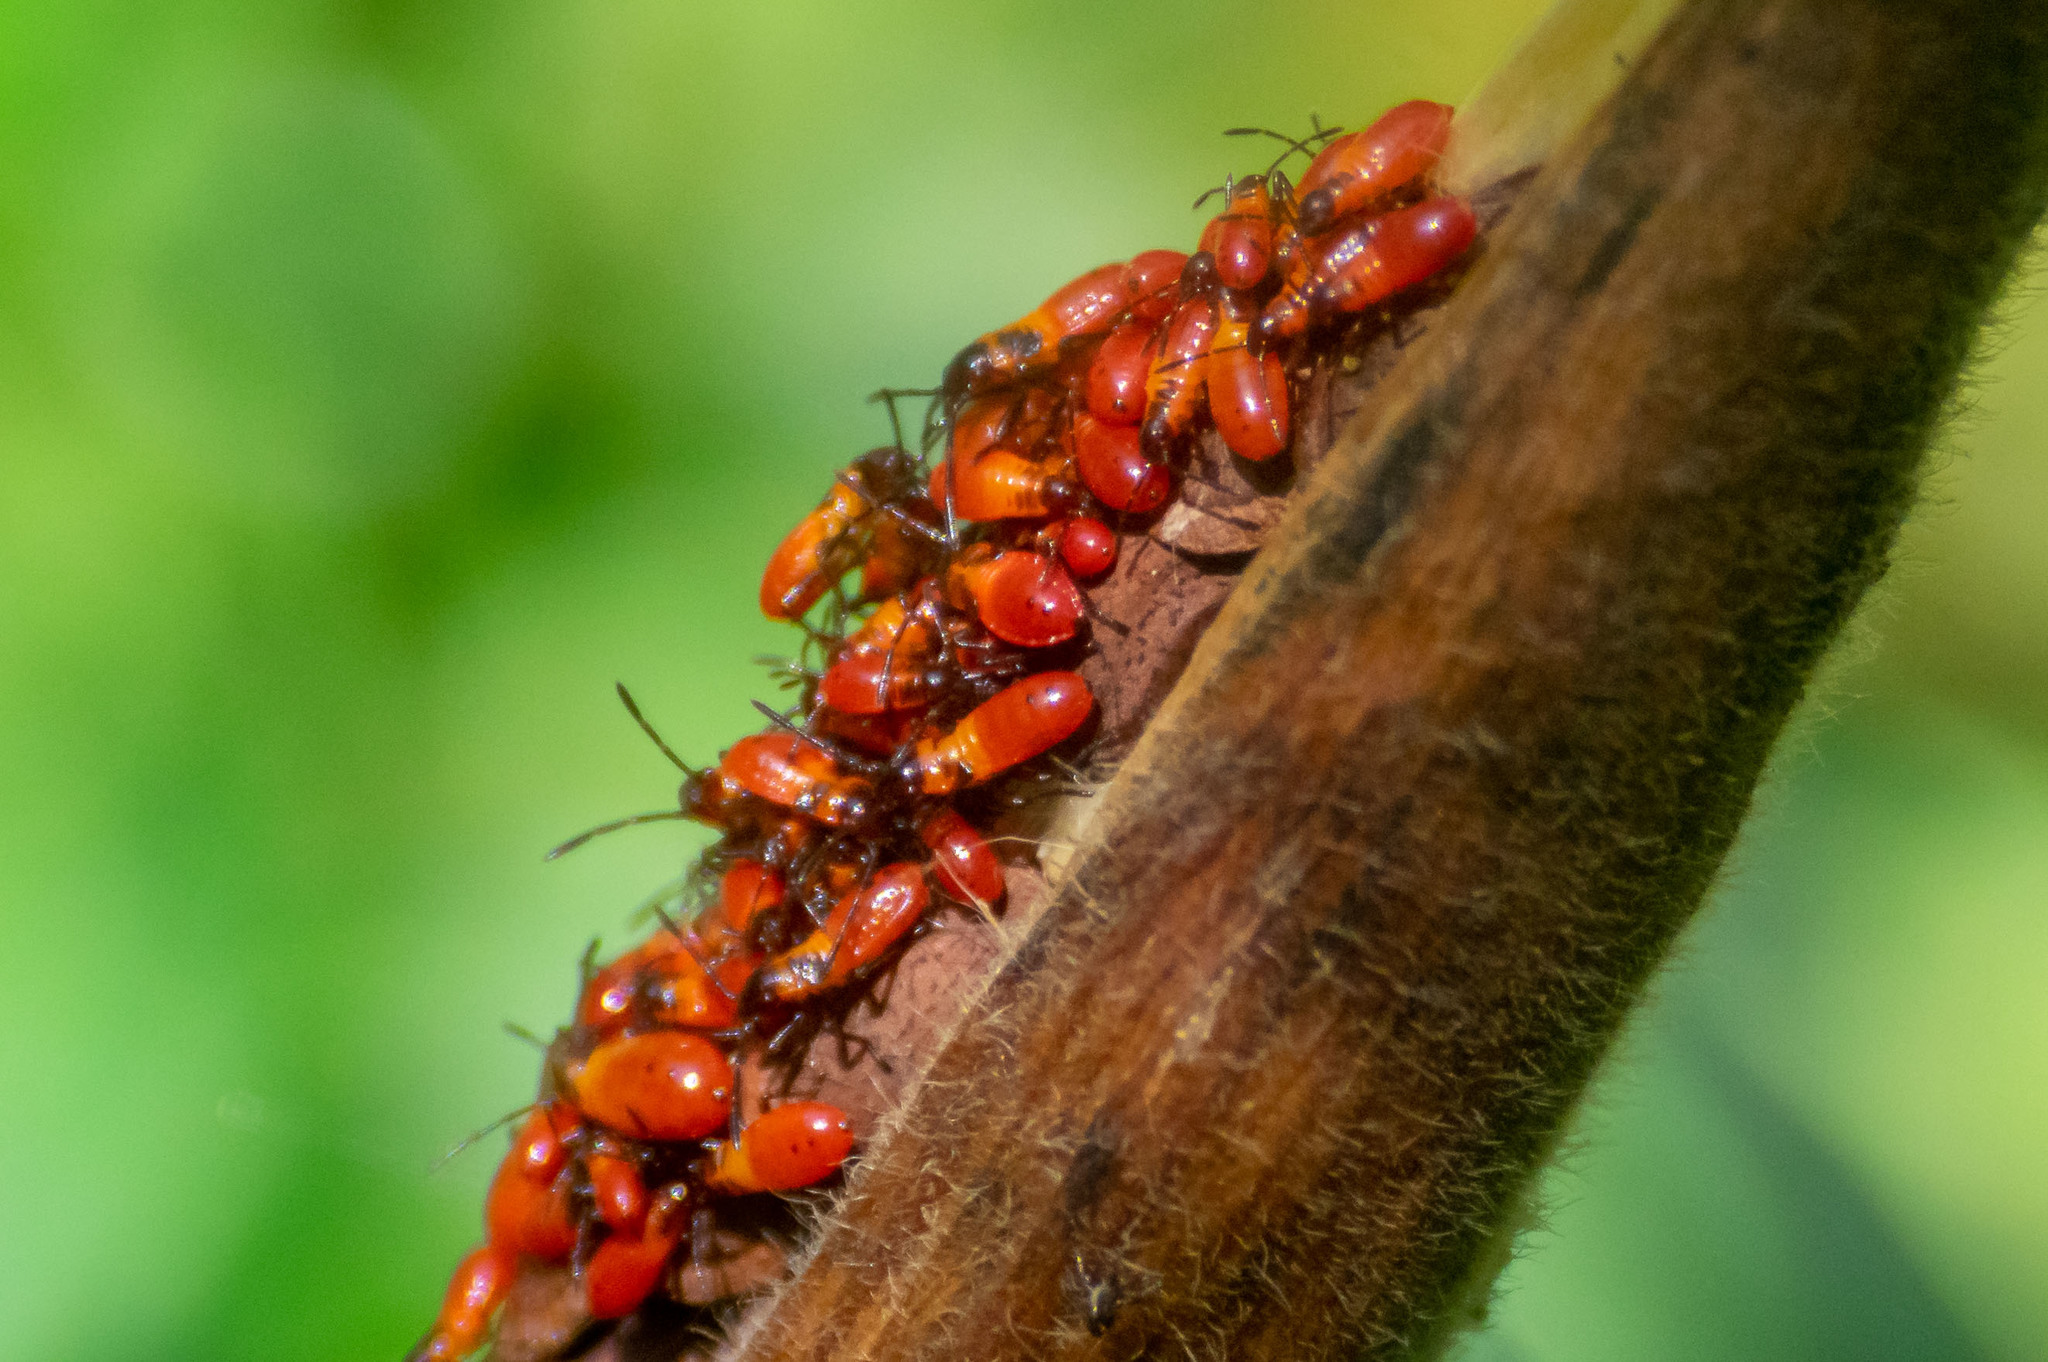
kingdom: Animalia
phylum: Arthropoda
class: Insecta
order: Hemiptera
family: Lygaeidae
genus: Oncopeltus
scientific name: Oncopeltus fasciatus
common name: Large milkweed bug
